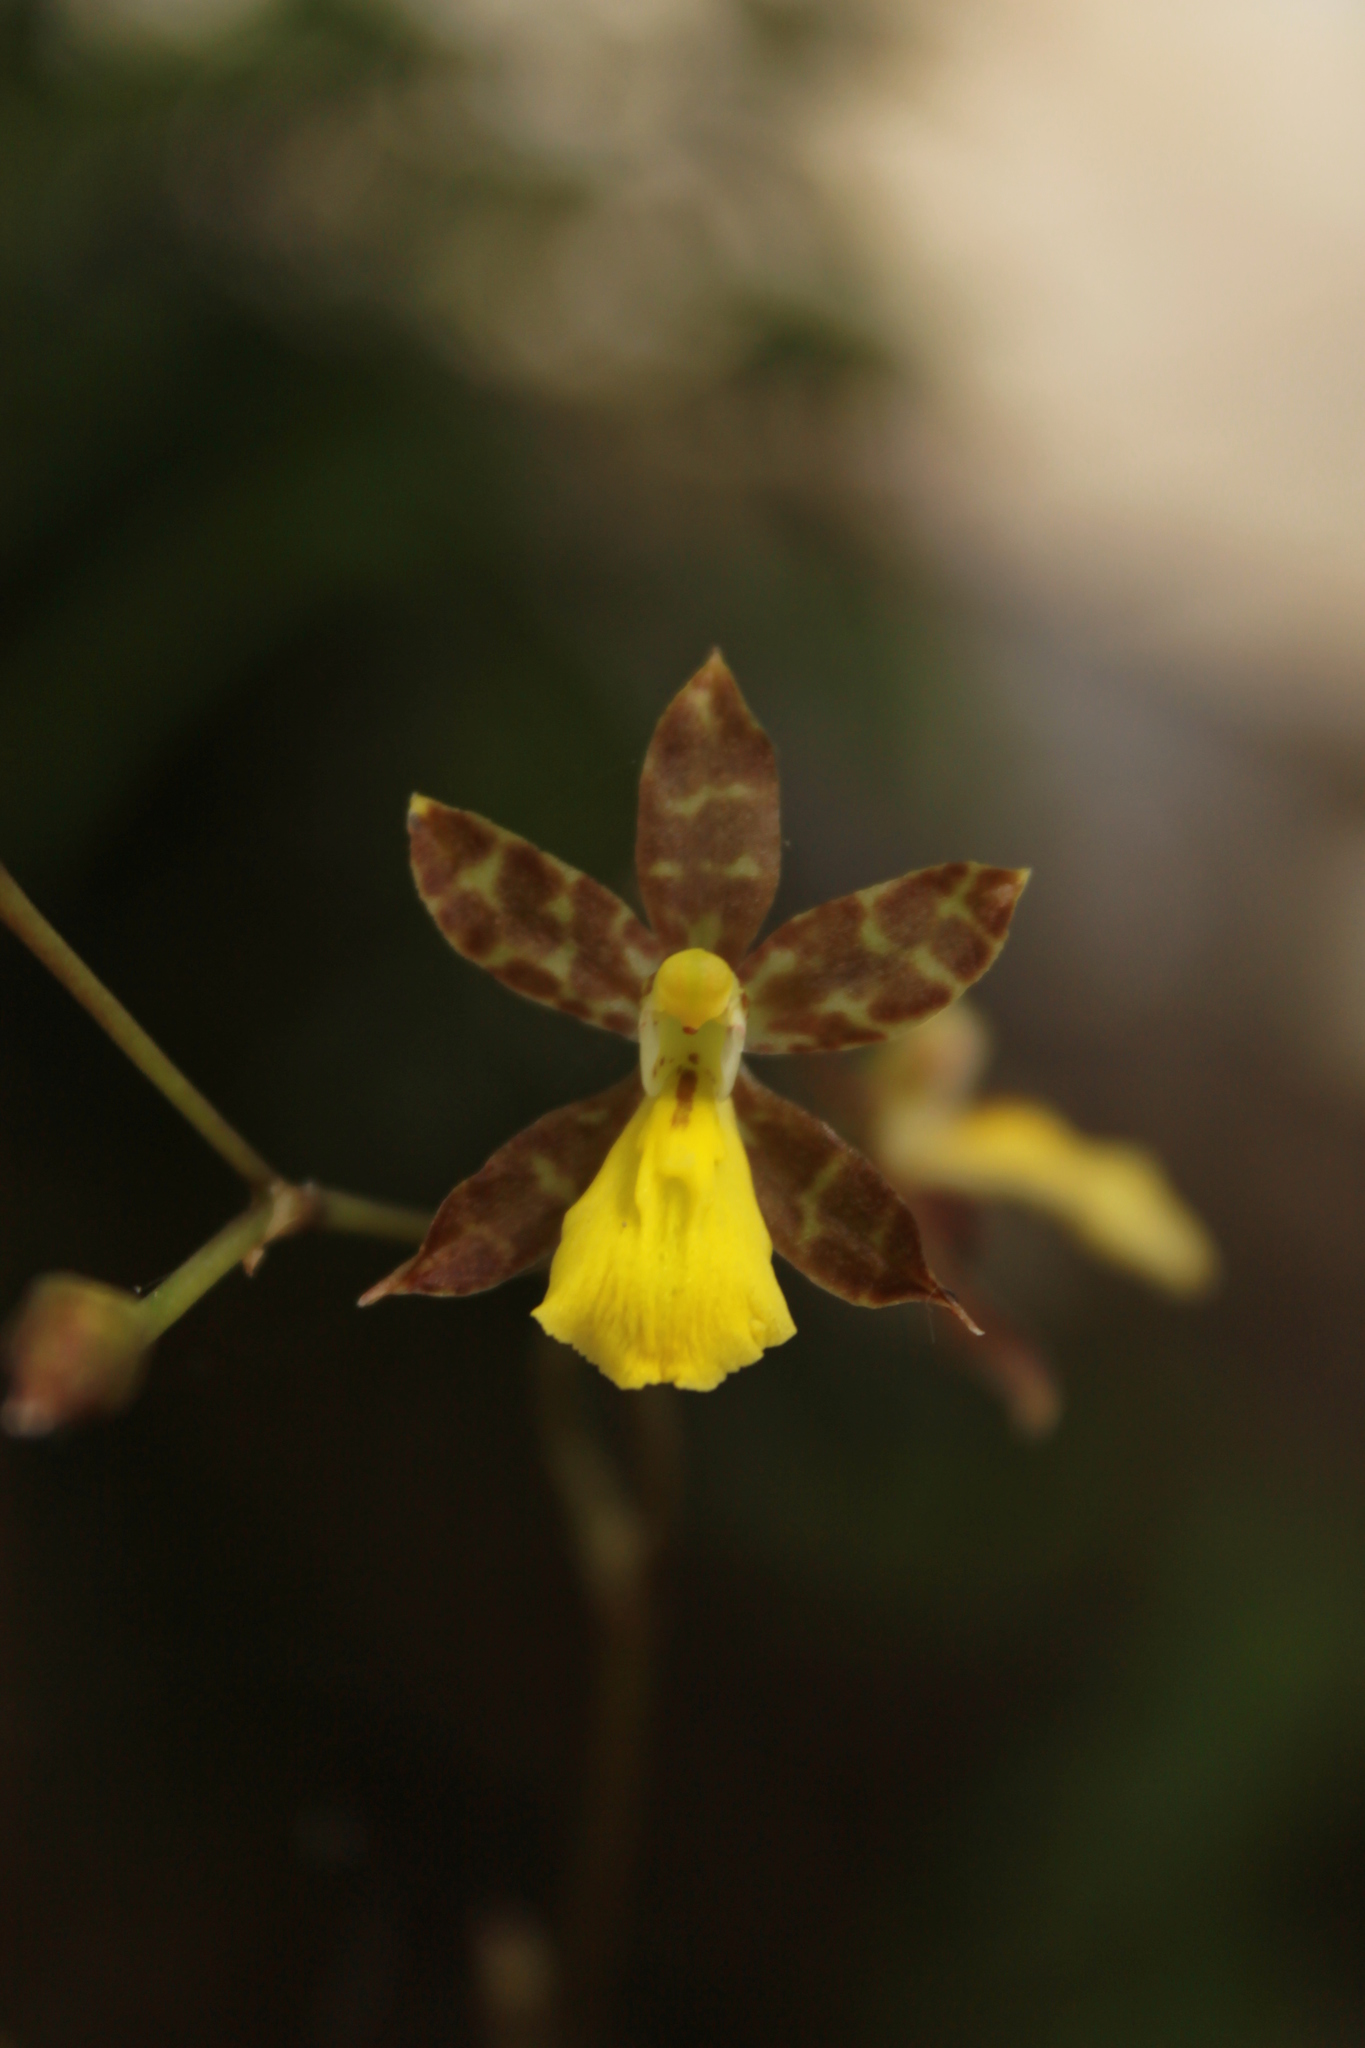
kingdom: Plantae
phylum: Tracheophyta
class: Liliopsida
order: Asparagales
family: Orchidaceae
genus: Oncidium
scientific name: Oncidium graminifolium
